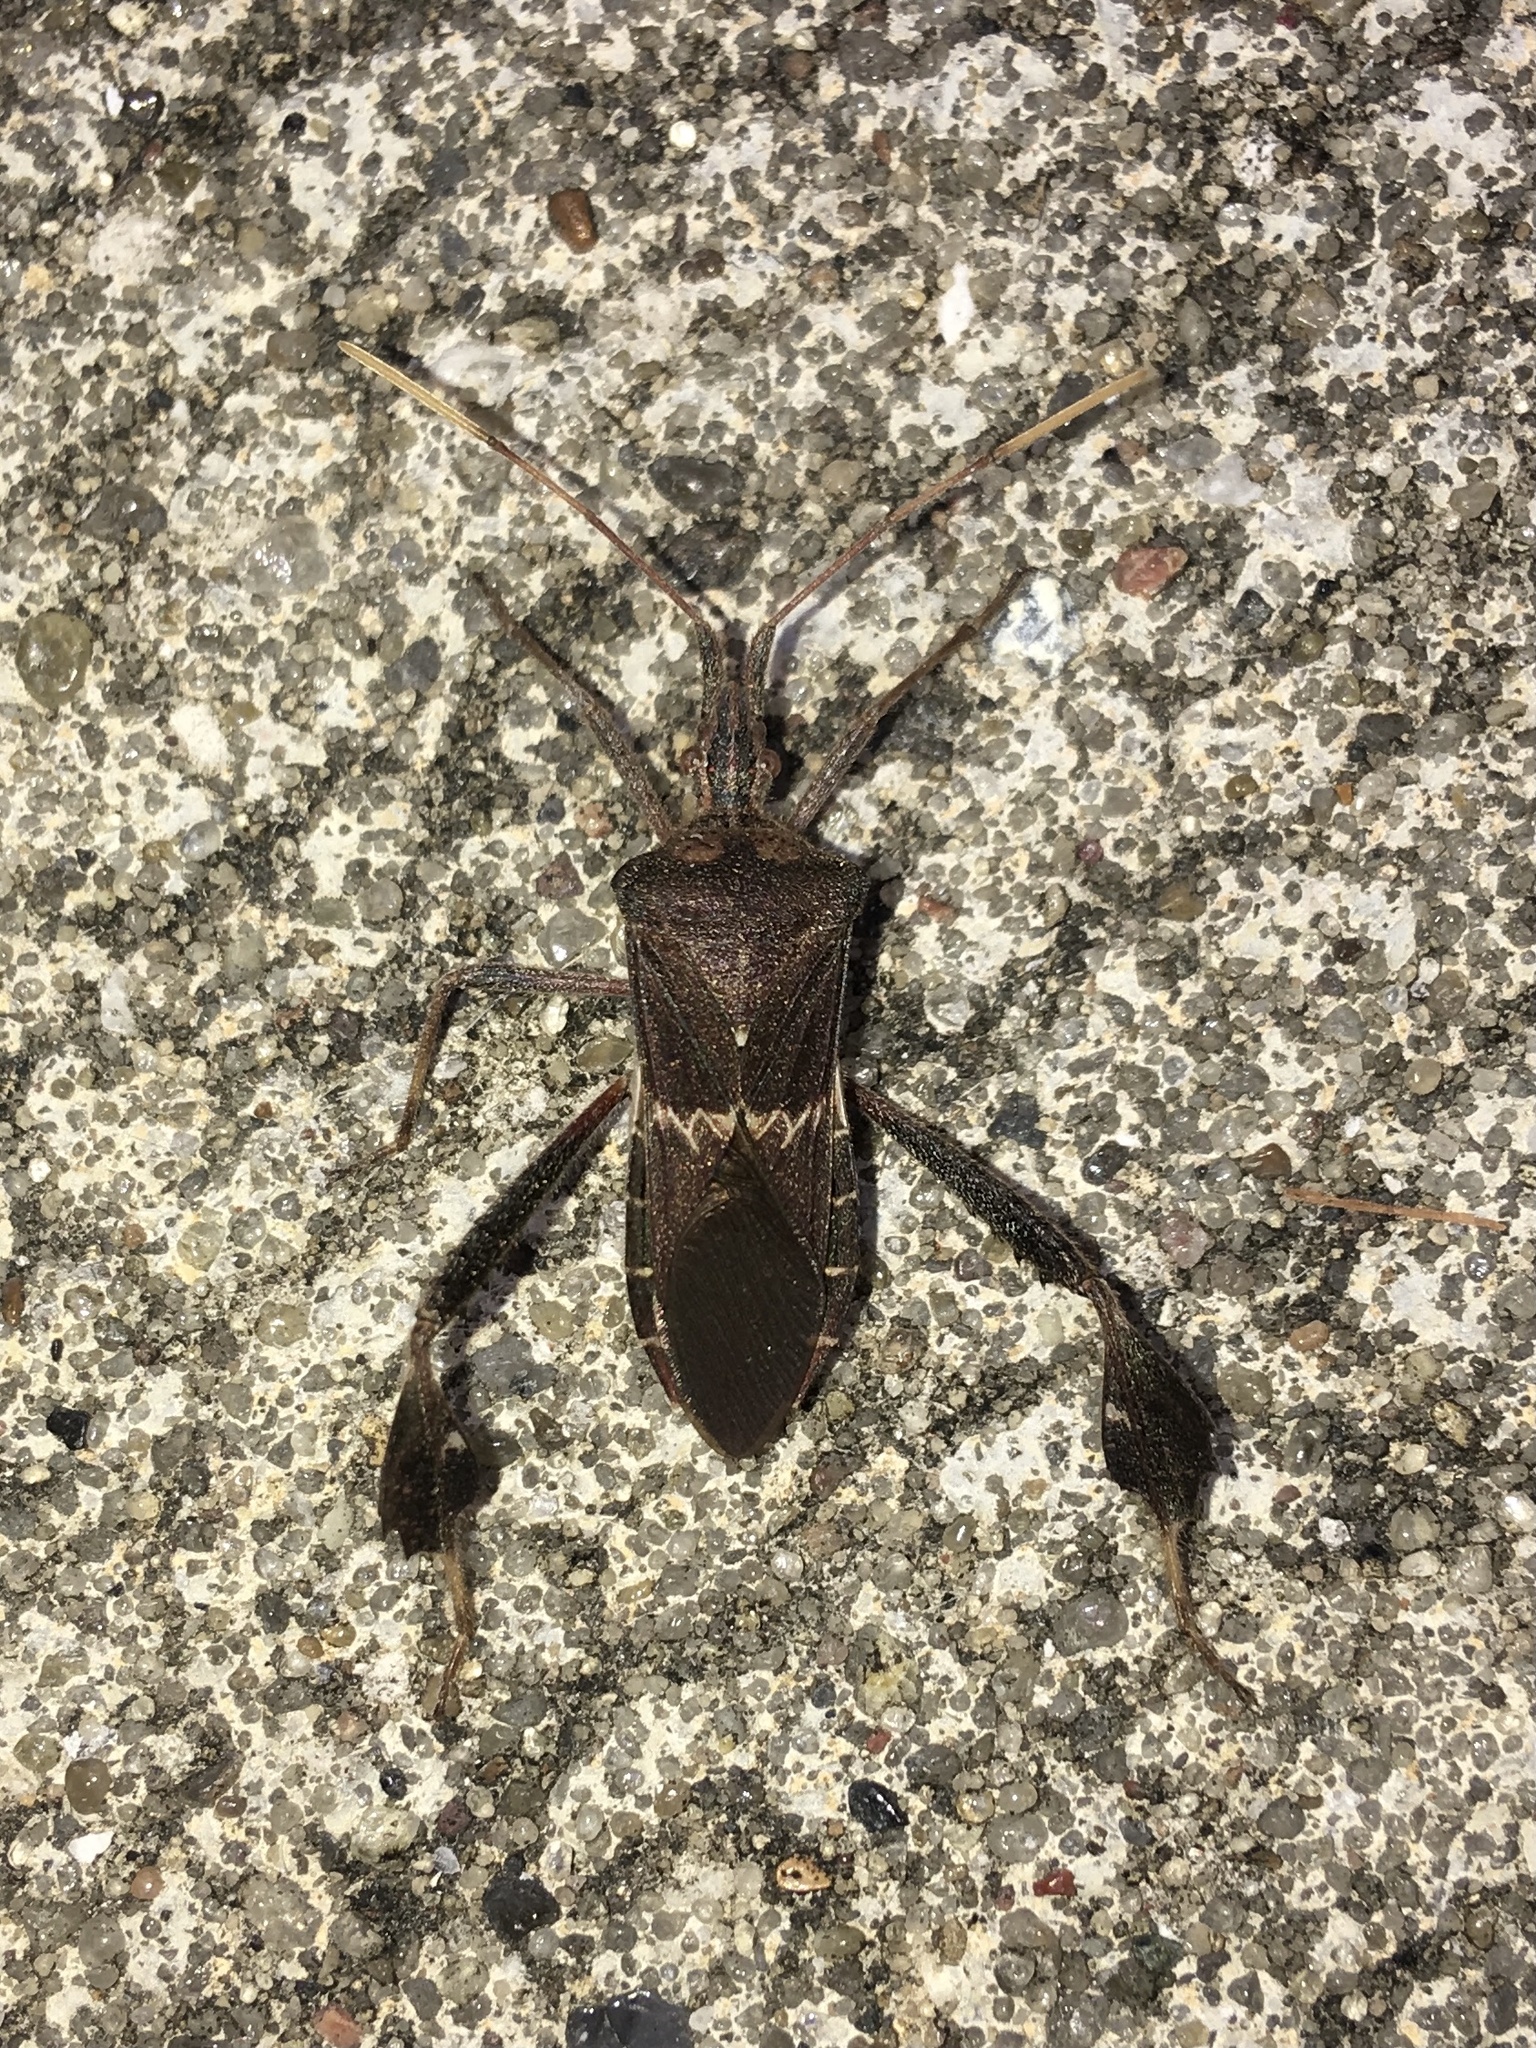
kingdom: Animalia
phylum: Arthropoda
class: Insecta
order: Hemiptera
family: Coreidae
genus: Leptoglossus
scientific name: Leptoglossus zonatus
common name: Large-legged bug
